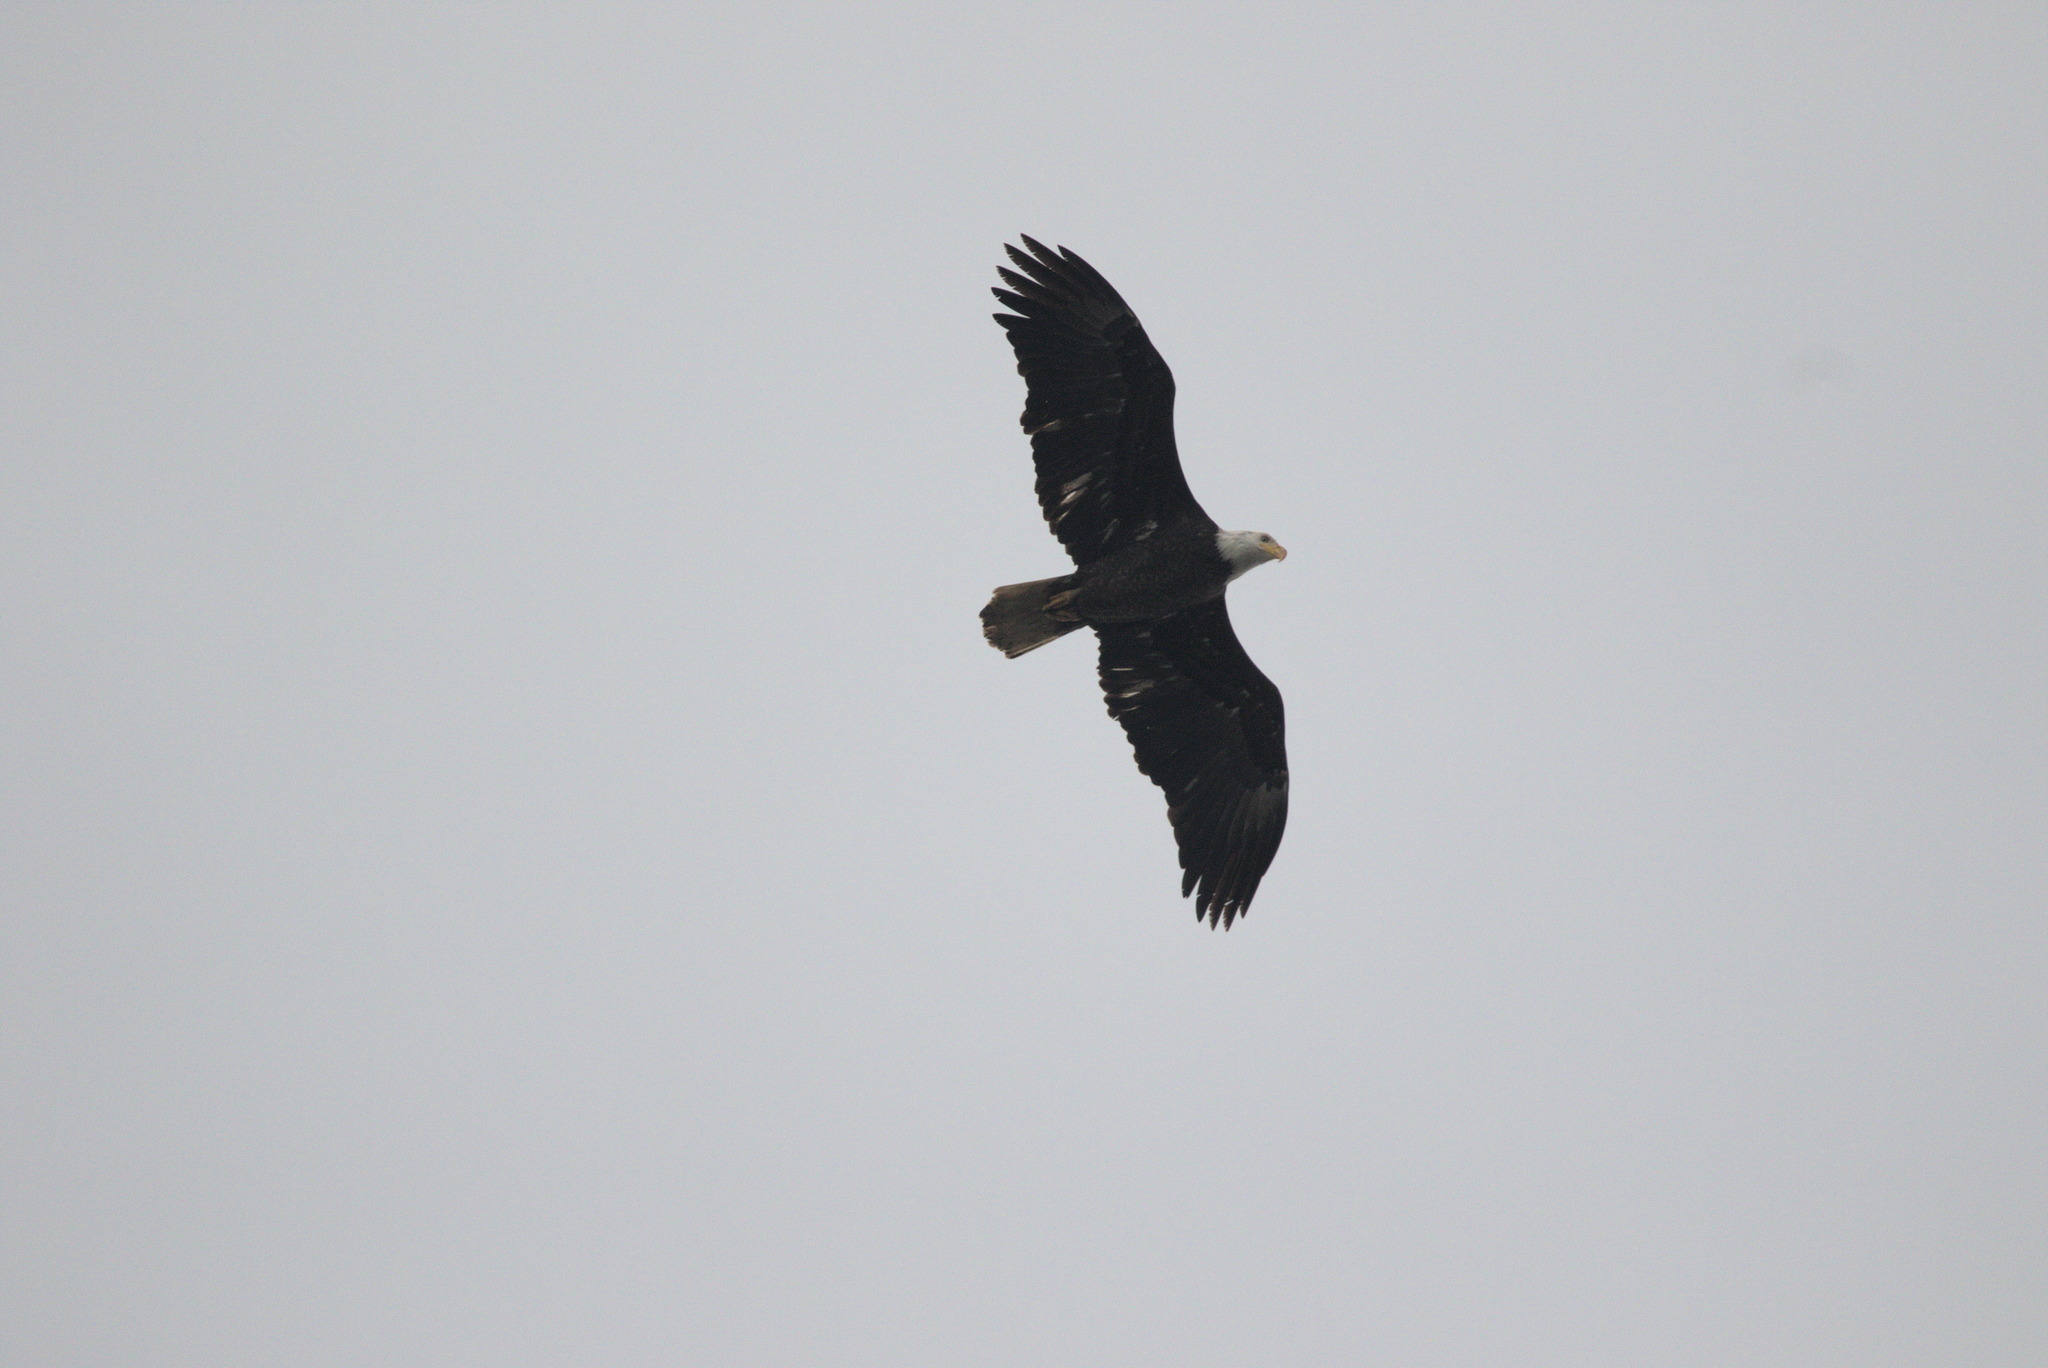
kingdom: Animalia
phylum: Chordata
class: Aves
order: Accipitriformes
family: Accipitridae
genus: Haliaeetus
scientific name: Haliaeetus leucocephalus
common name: Bald eagle
